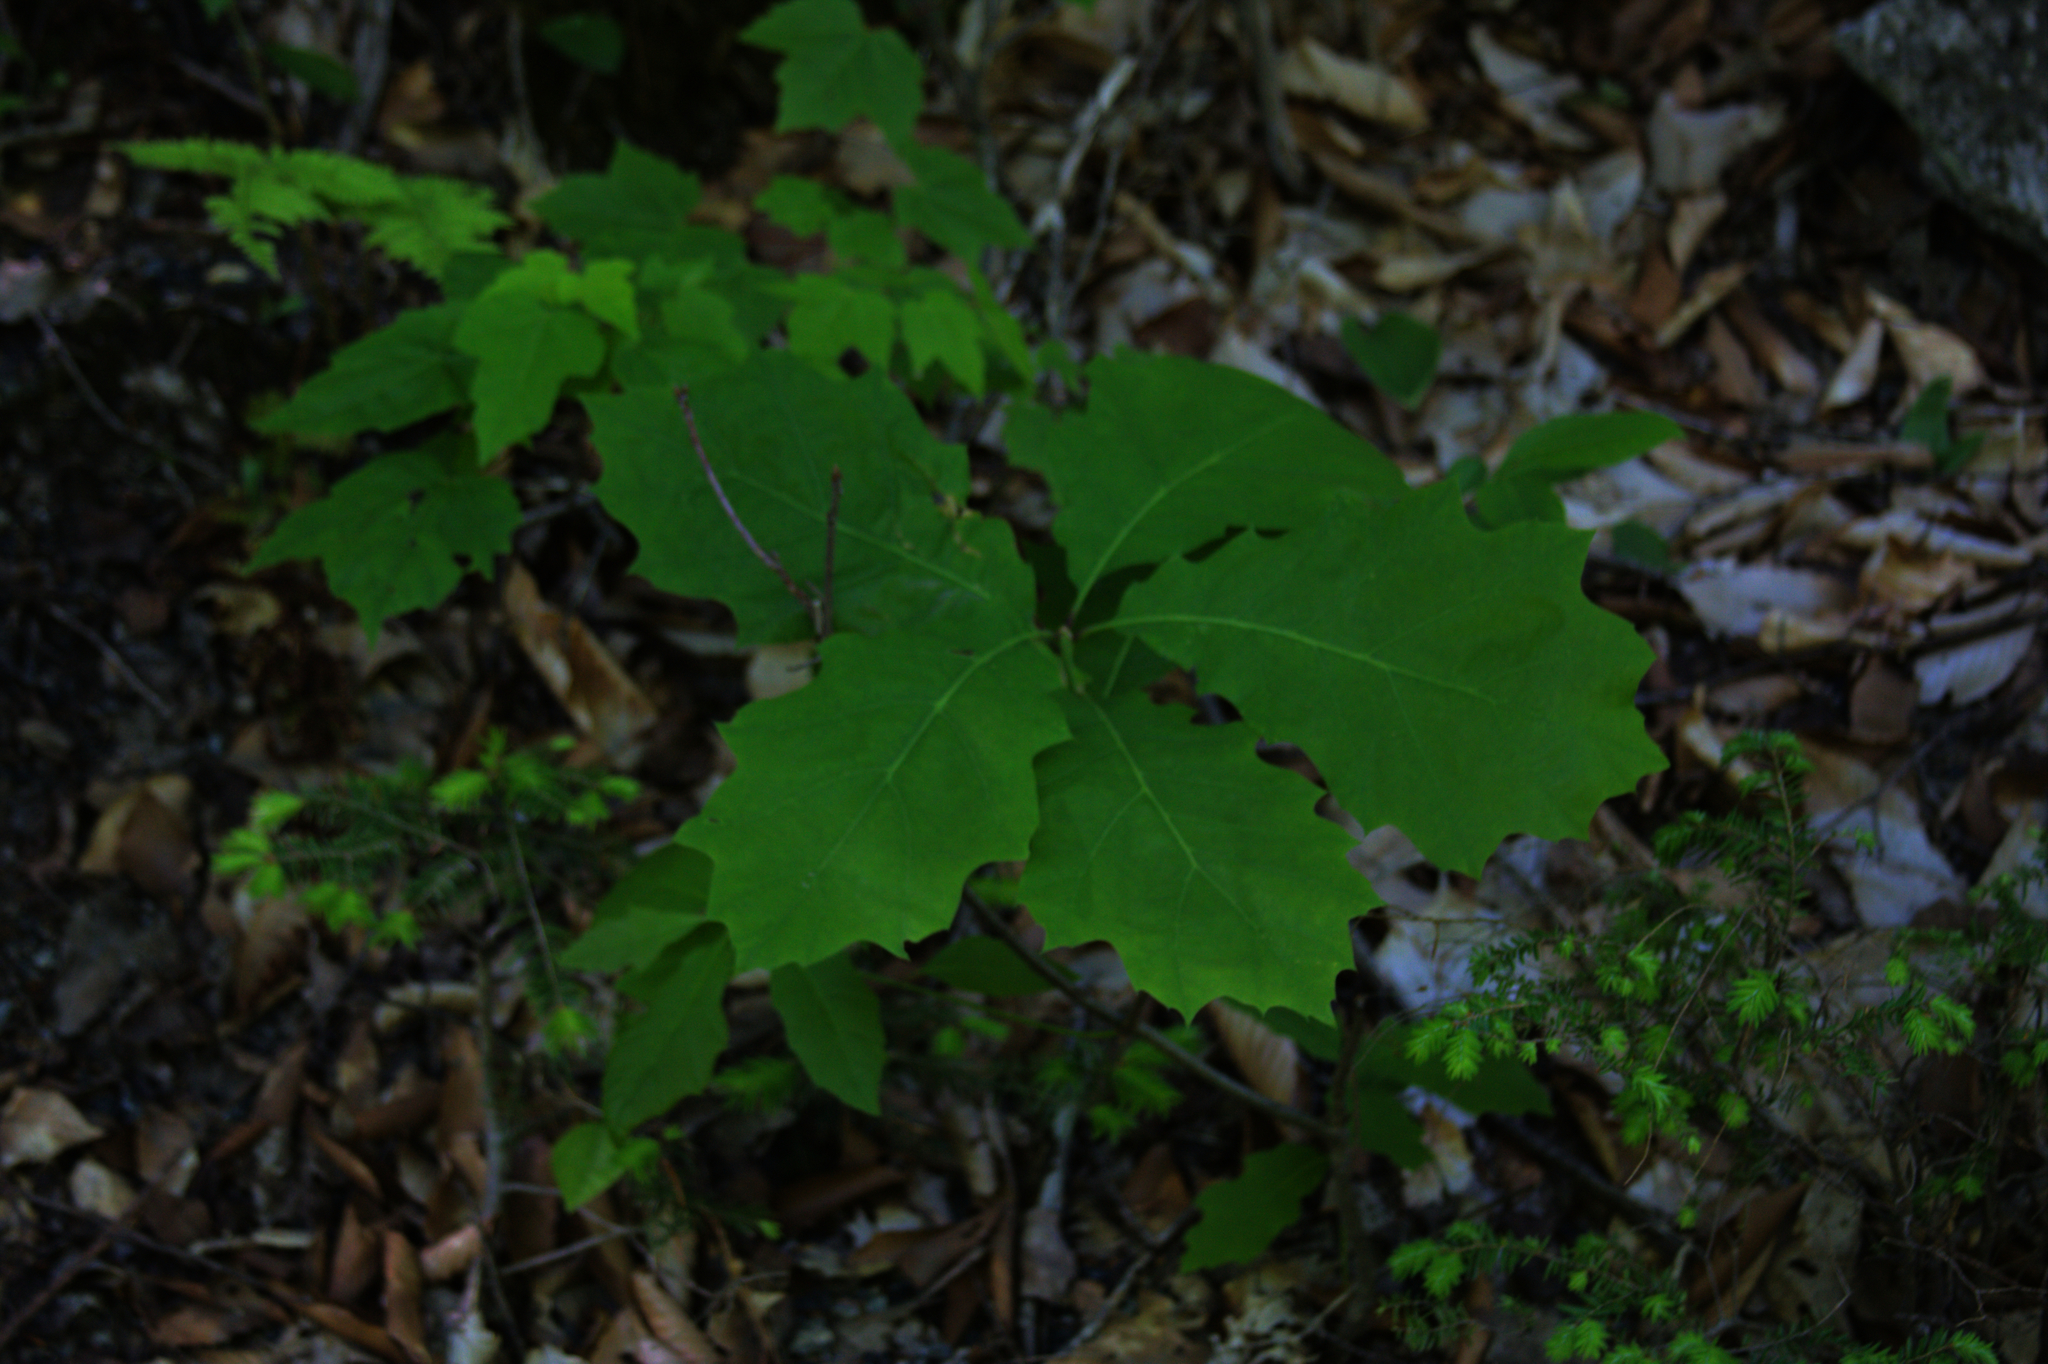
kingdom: Plantae
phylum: Tracheophyta
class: Magnoliopsida
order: Fagales
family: Fagaceae
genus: Quercus
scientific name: Quercus rubra
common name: Red oak
